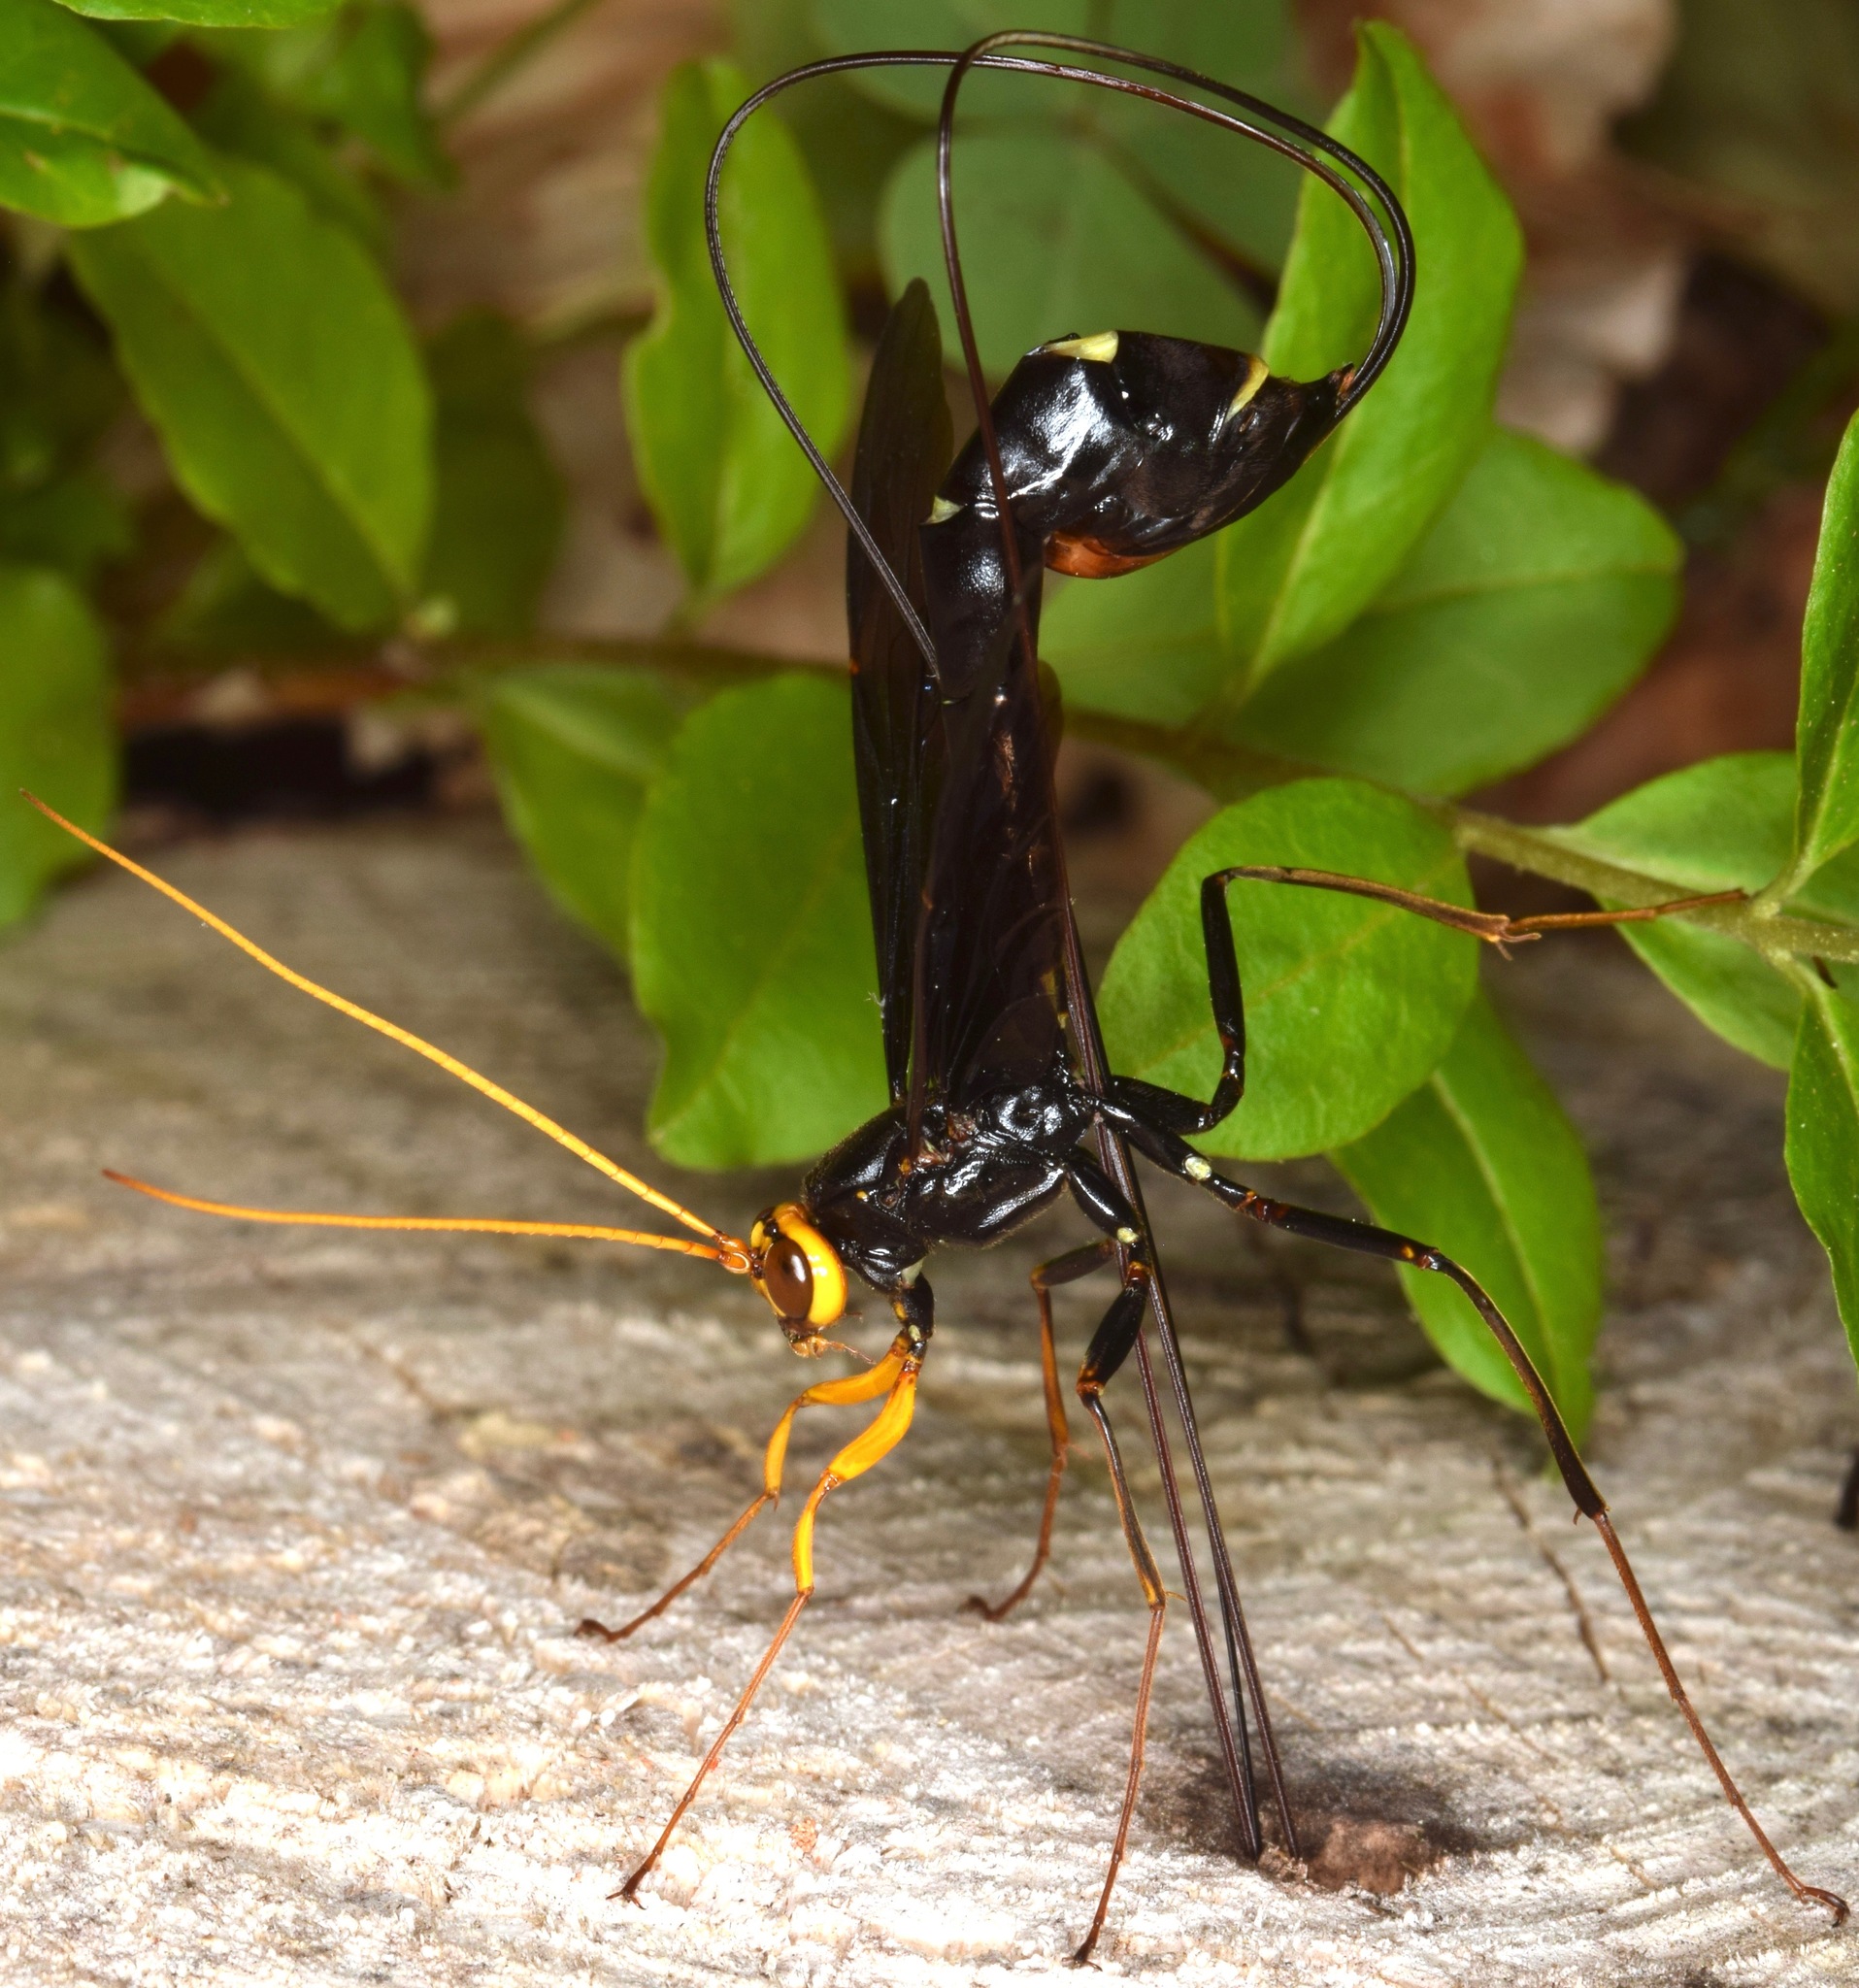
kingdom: Animalia
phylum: Arthropoda
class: Insecta
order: Hymenoptera
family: Ichneumonidae
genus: Megarhyssa
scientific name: Megarhyssa atrata
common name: Black giant ichneumonid wasp
